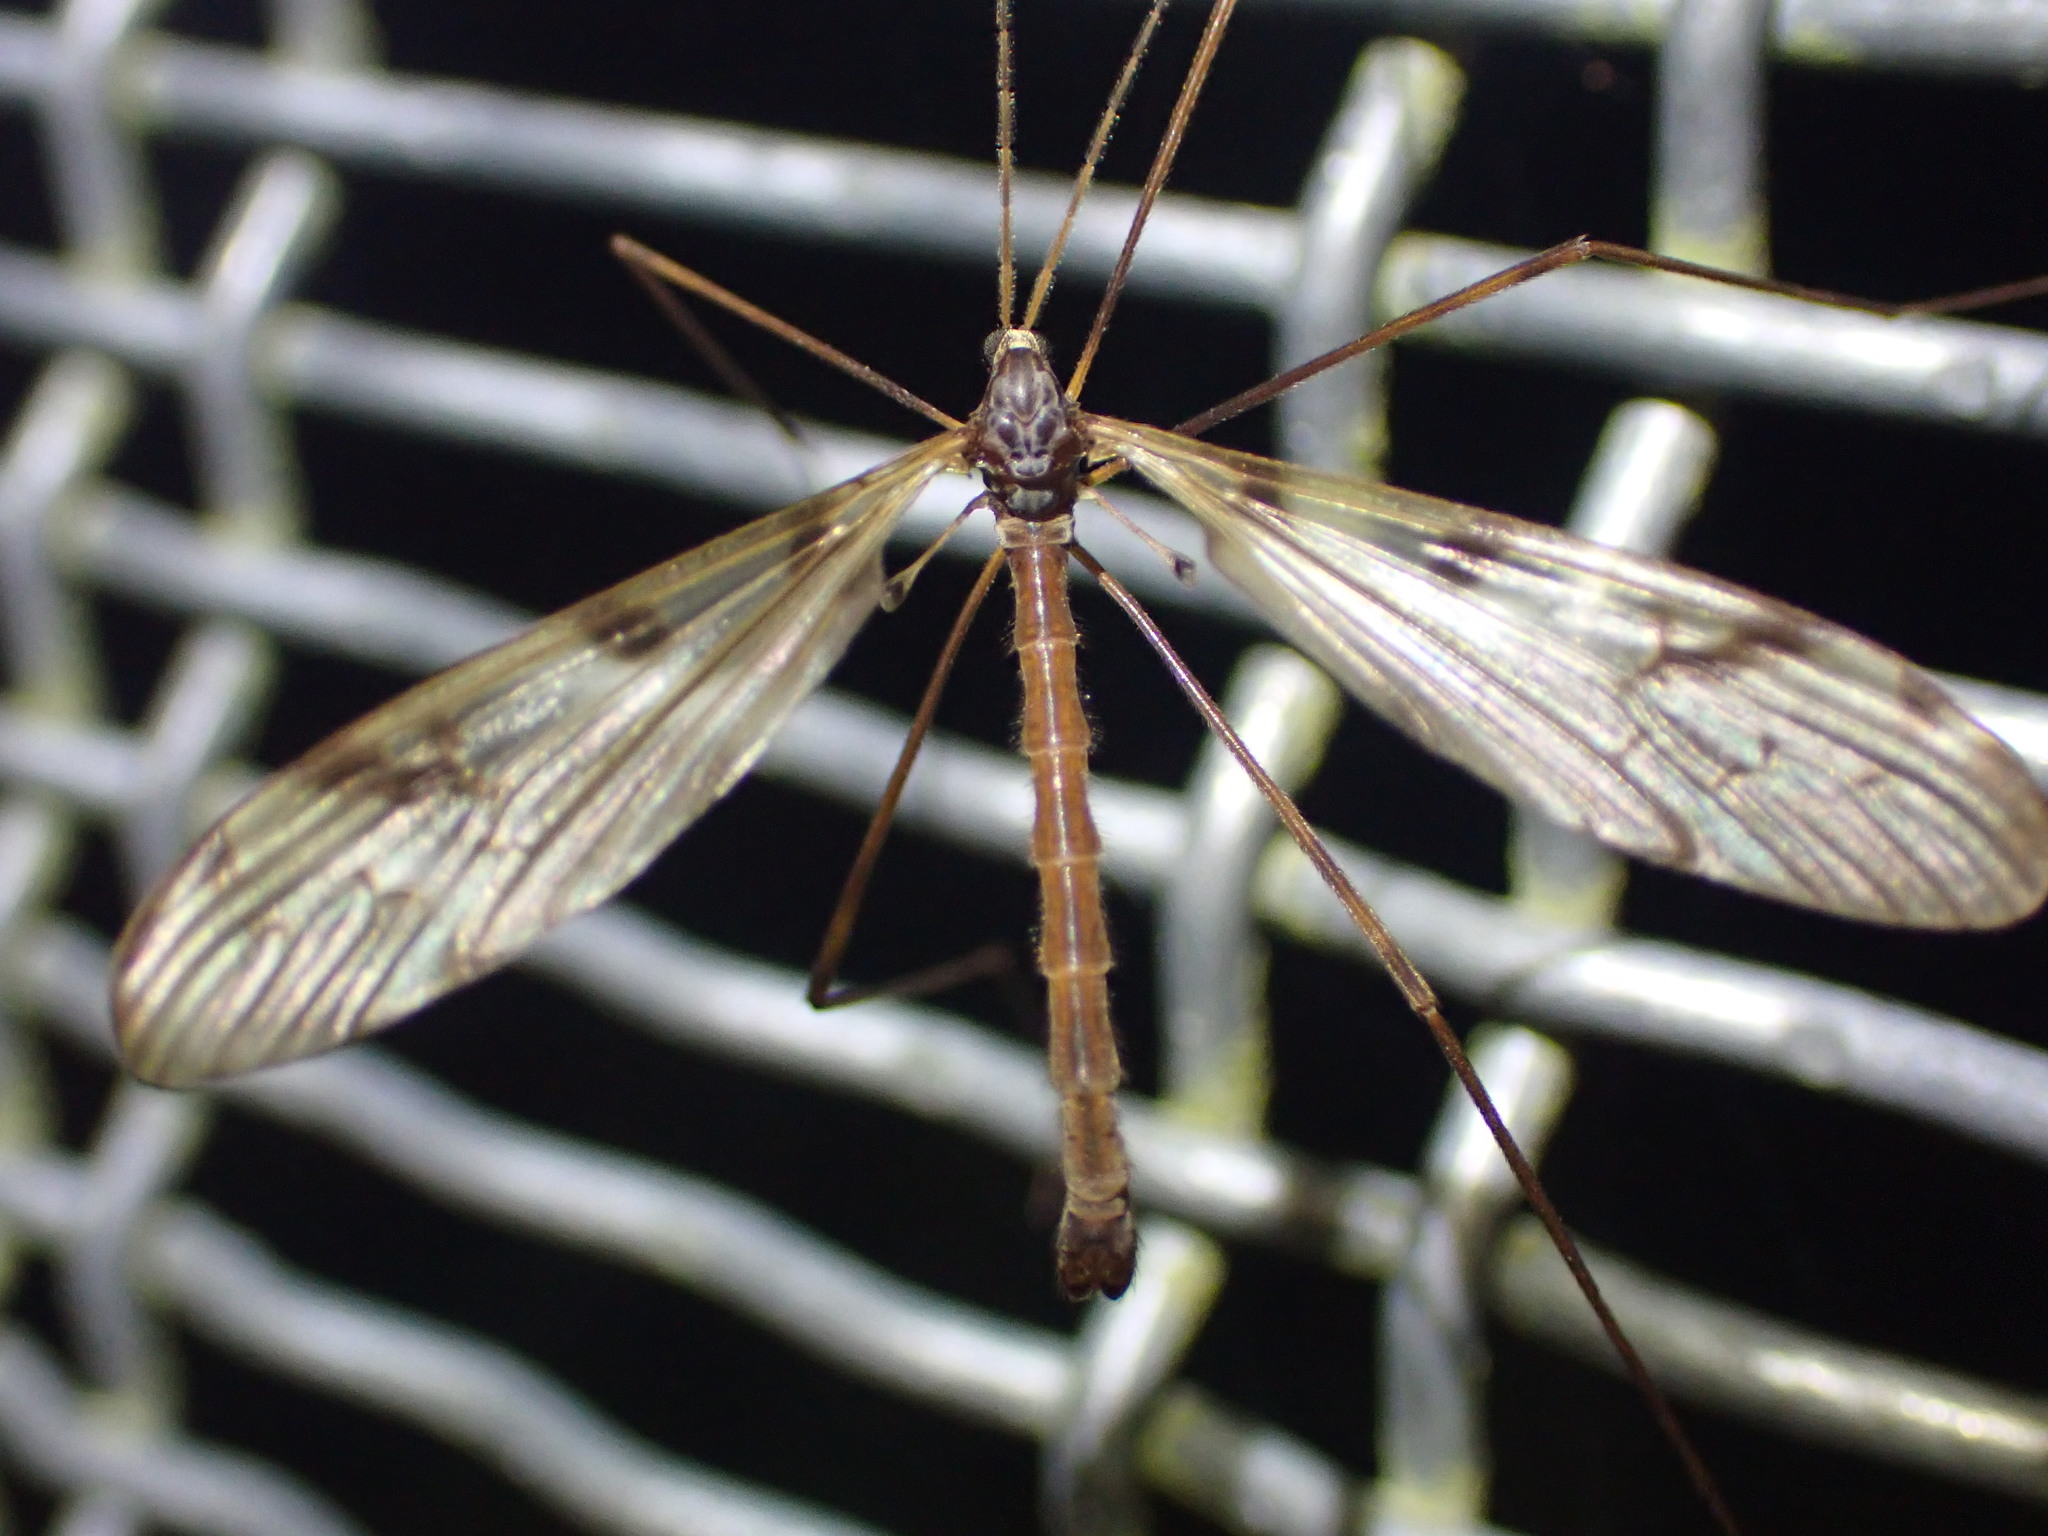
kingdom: Animalia
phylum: Arthropoda
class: Insecta
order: Diptera
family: Limoniidae
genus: Austrolimnophila
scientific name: Austrolimnophila cyatheti
